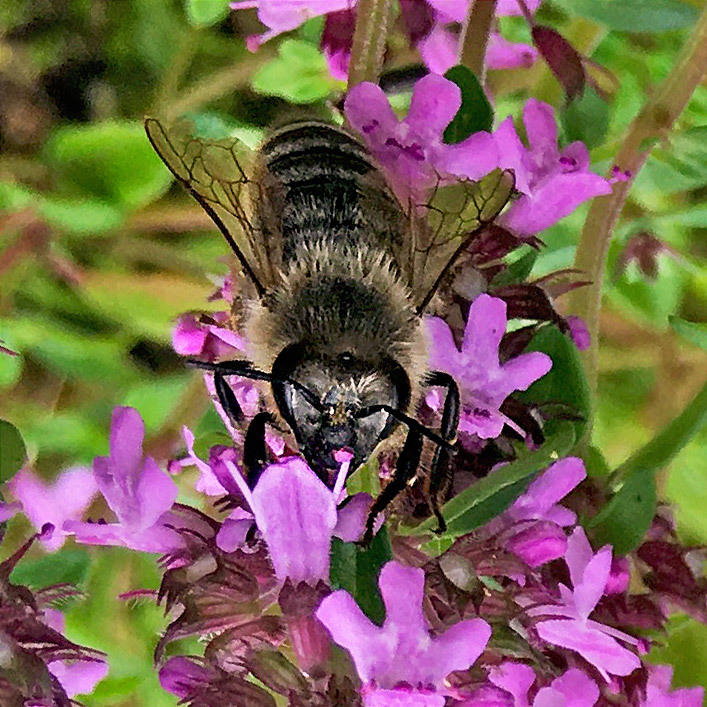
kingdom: Animalia
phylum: Arthropoda
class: Insecta
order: Hymenoptera
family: Apidae
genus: Apis
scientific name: Apis mellifera
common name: Honey bee
